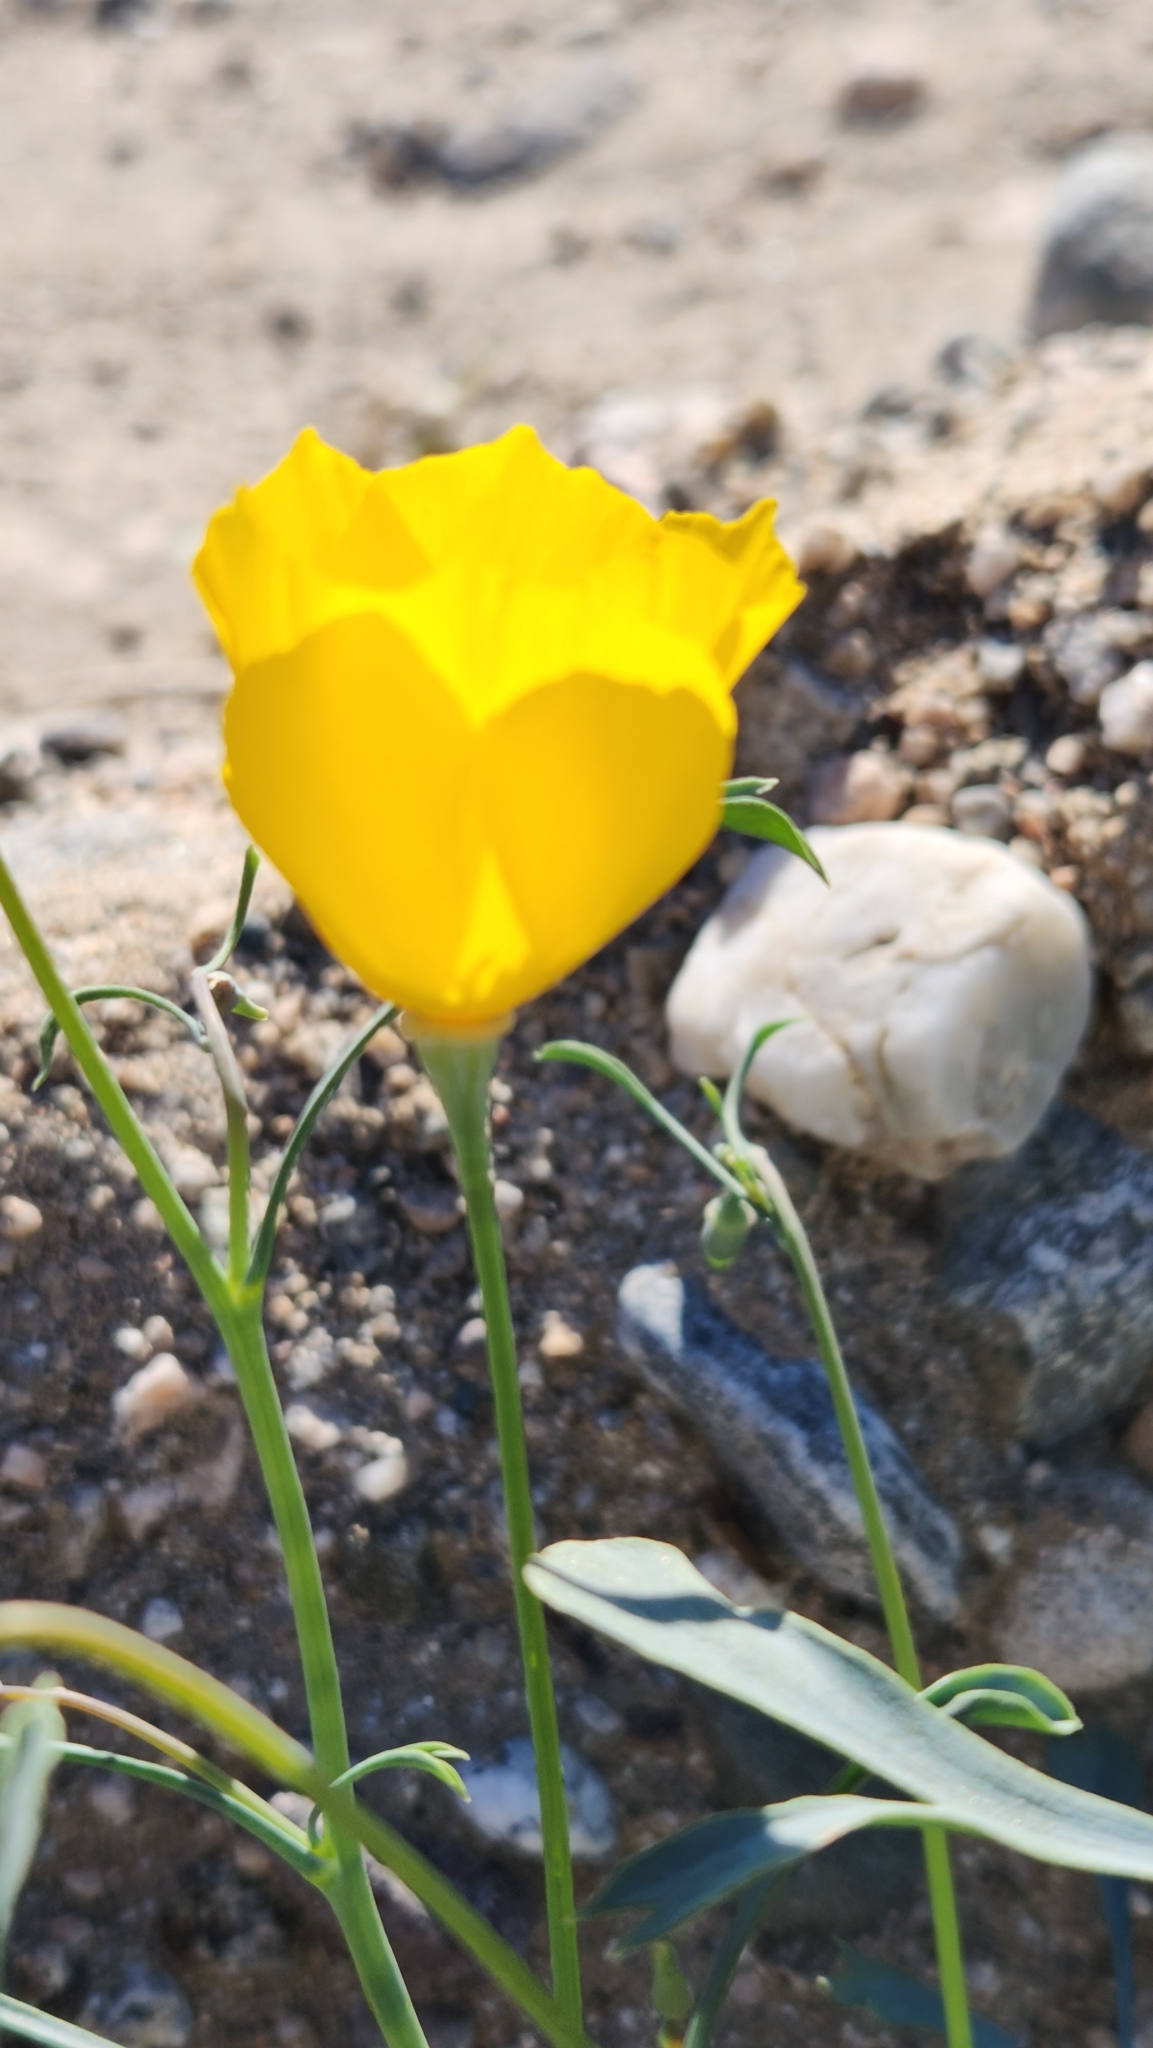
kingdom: Plantae
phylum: Tracheophyta
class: Magnoliopsida
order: Ranunculales
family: Papaveraceae
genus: Eschscholzia
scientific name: Eschscholzia papastillii
